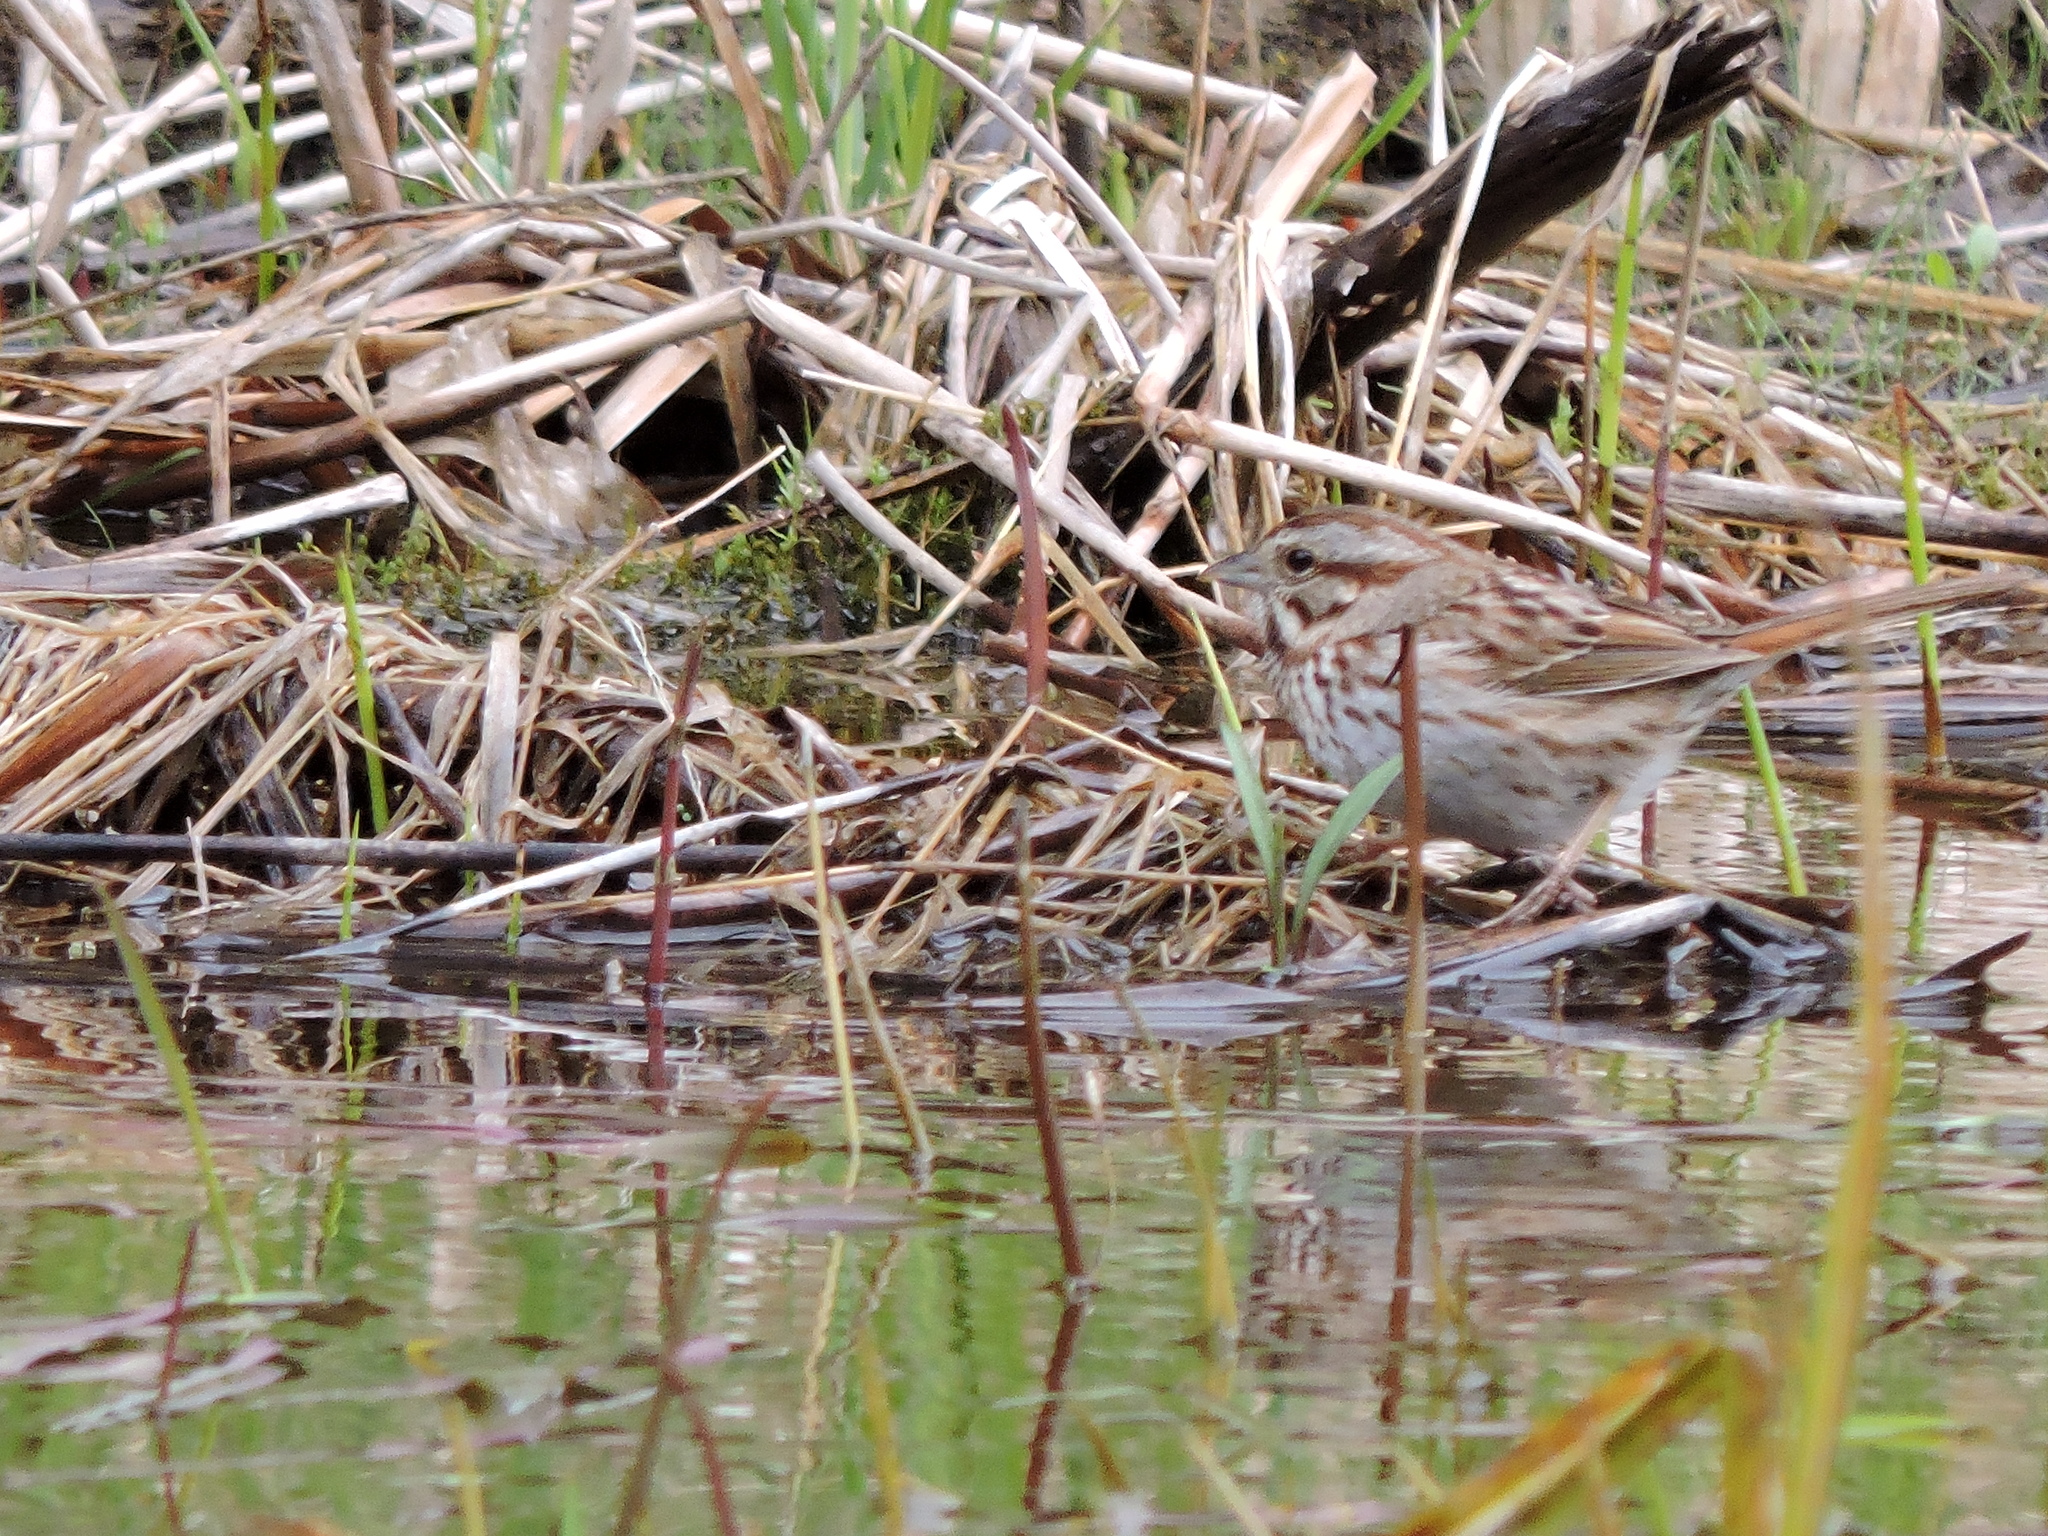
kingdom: Animalia
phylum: Chordata
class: Aves
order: Passeriformes
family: Passerellidae
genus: Melospiza
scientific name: Melospiza melodia
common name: Song sparrow
